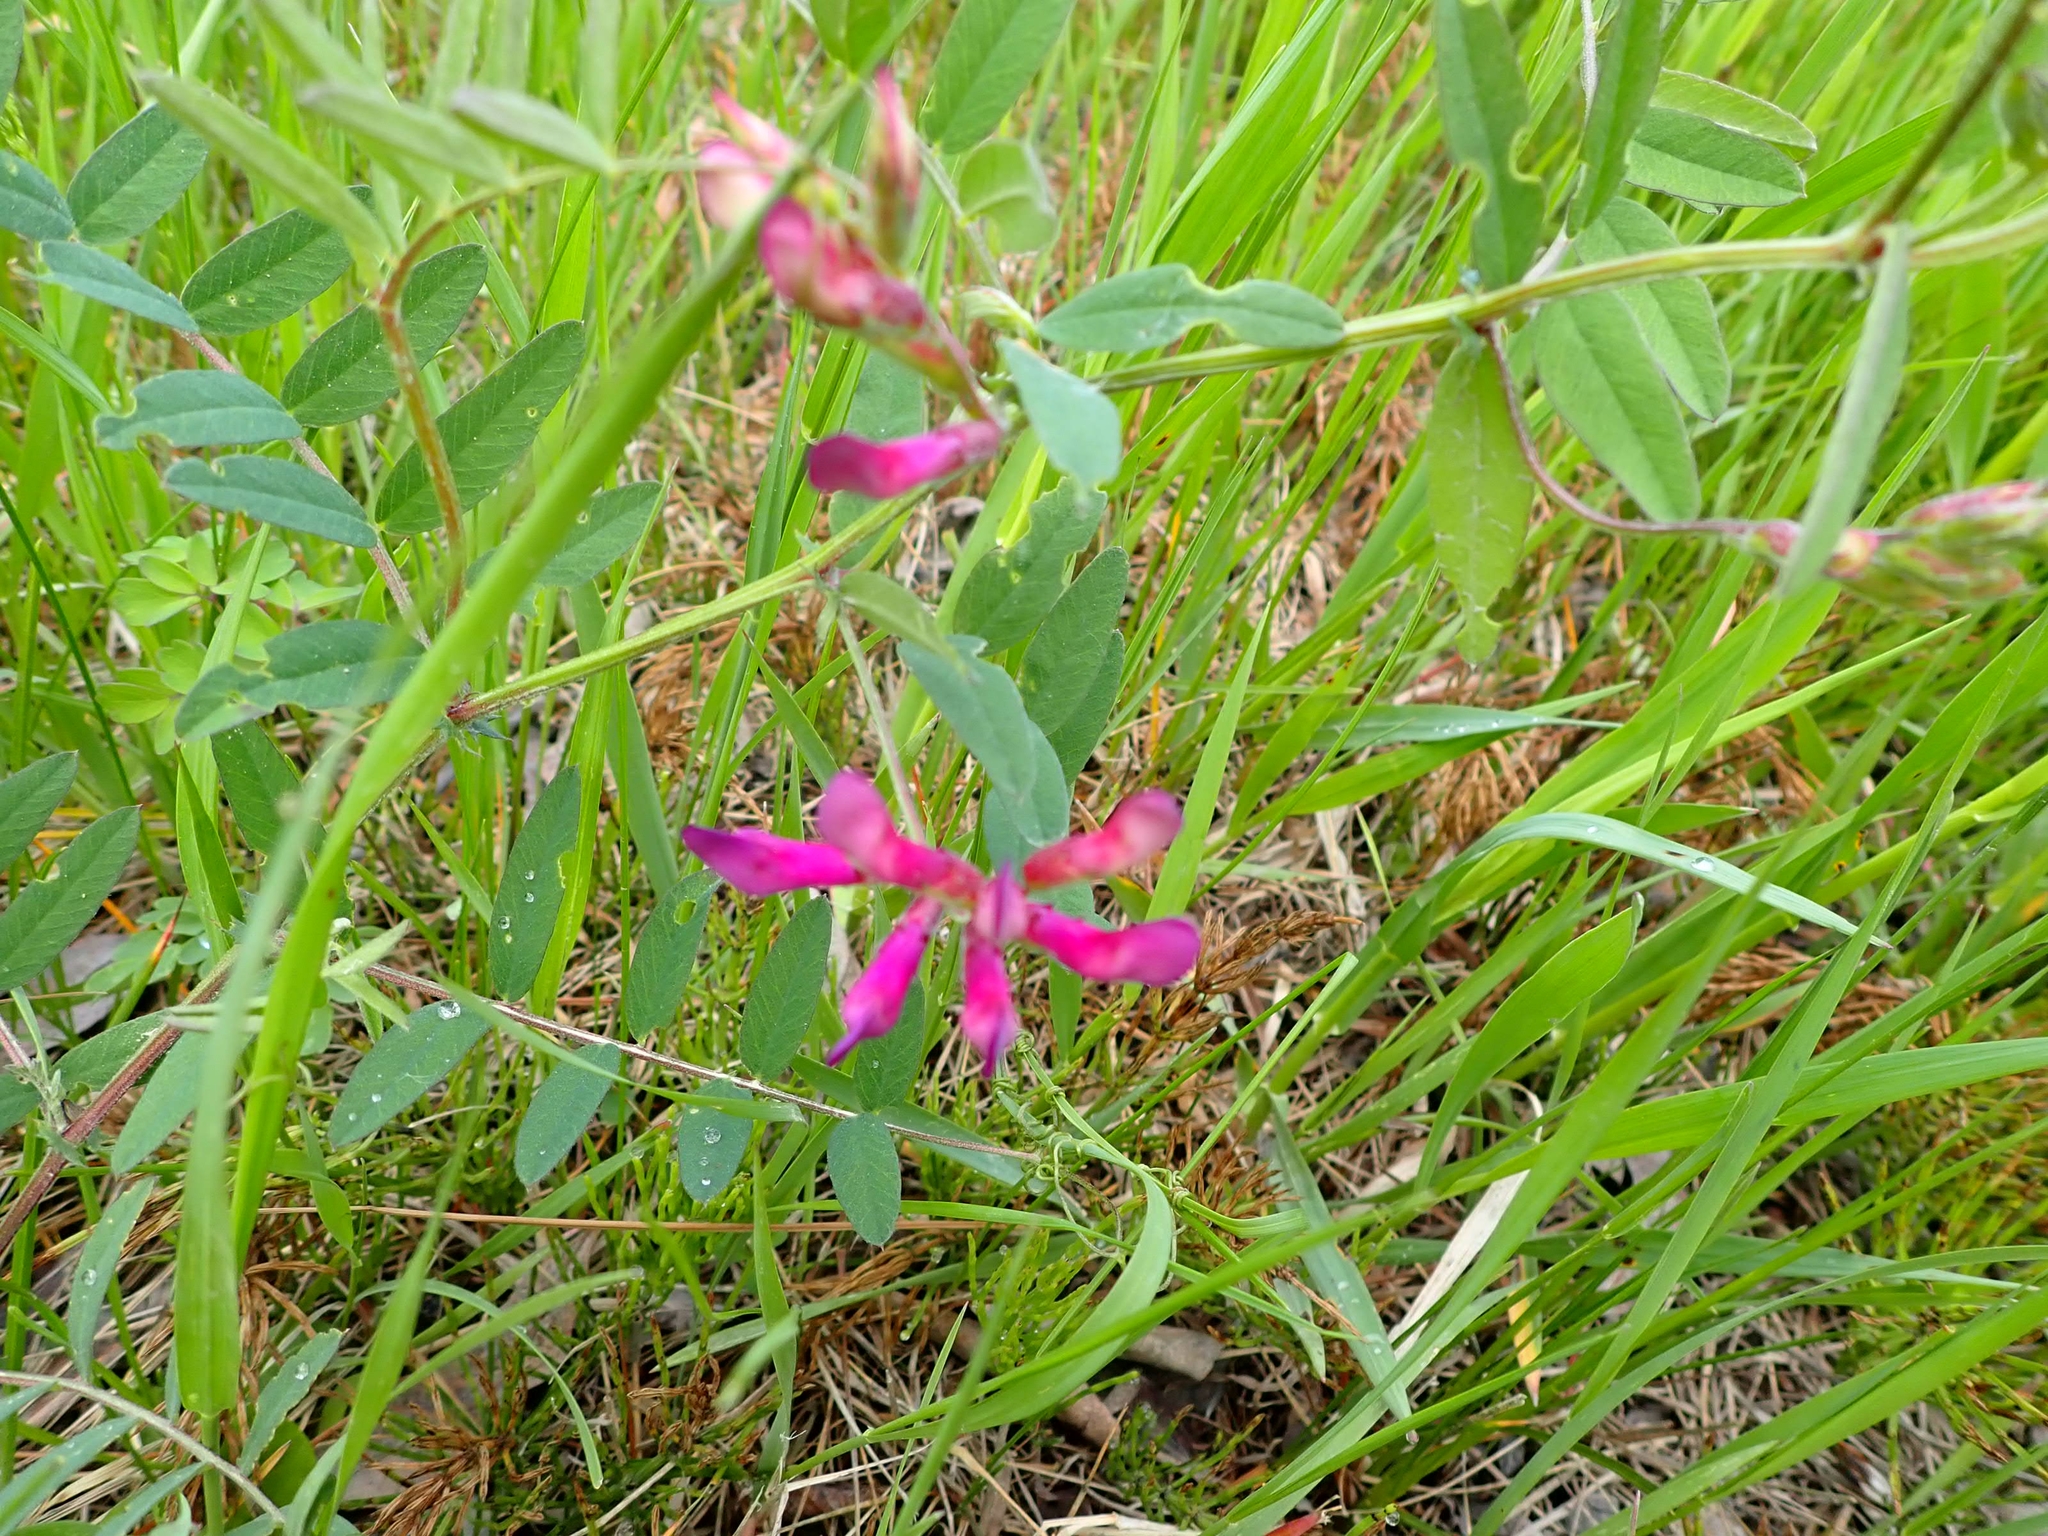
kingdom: Plantae
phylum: Tracheophyta
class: Magnoliopsida
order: Fabales
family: Fabaceae
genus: Vicia
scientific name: Vicia americana
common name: American vetch
